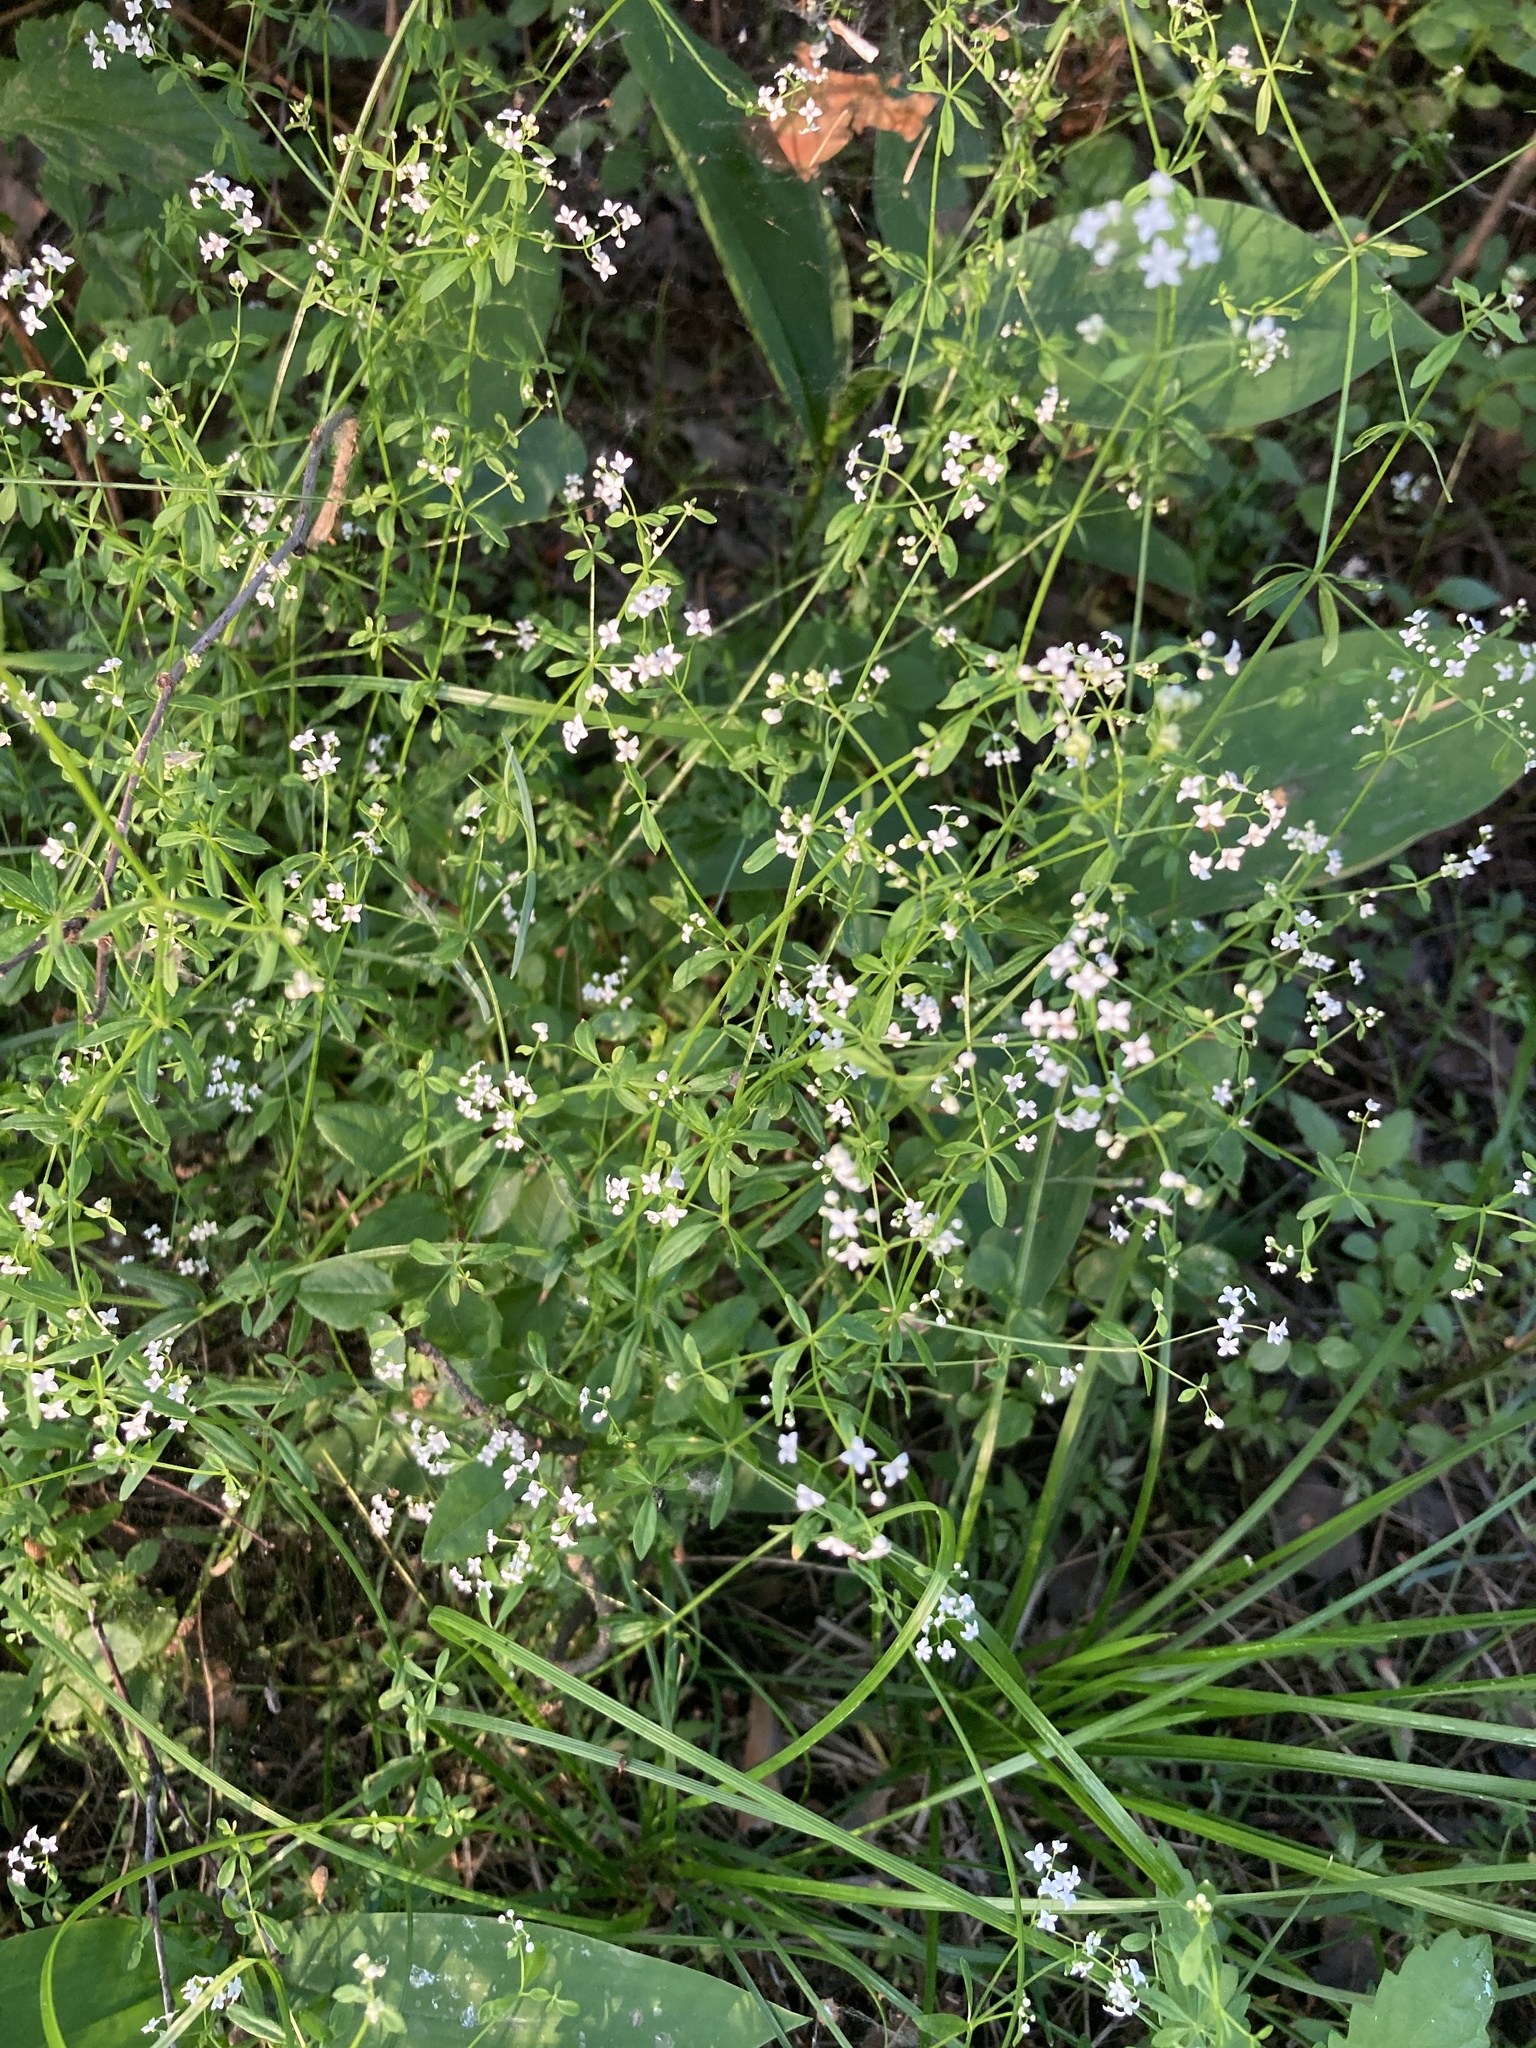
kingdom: Plantae
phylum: Tracheophyta
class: Magnoliopsida
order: Gentianales
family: Rubiaceae
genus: Galium
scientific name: Galium palustre
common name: Common marsh-bedstraw
